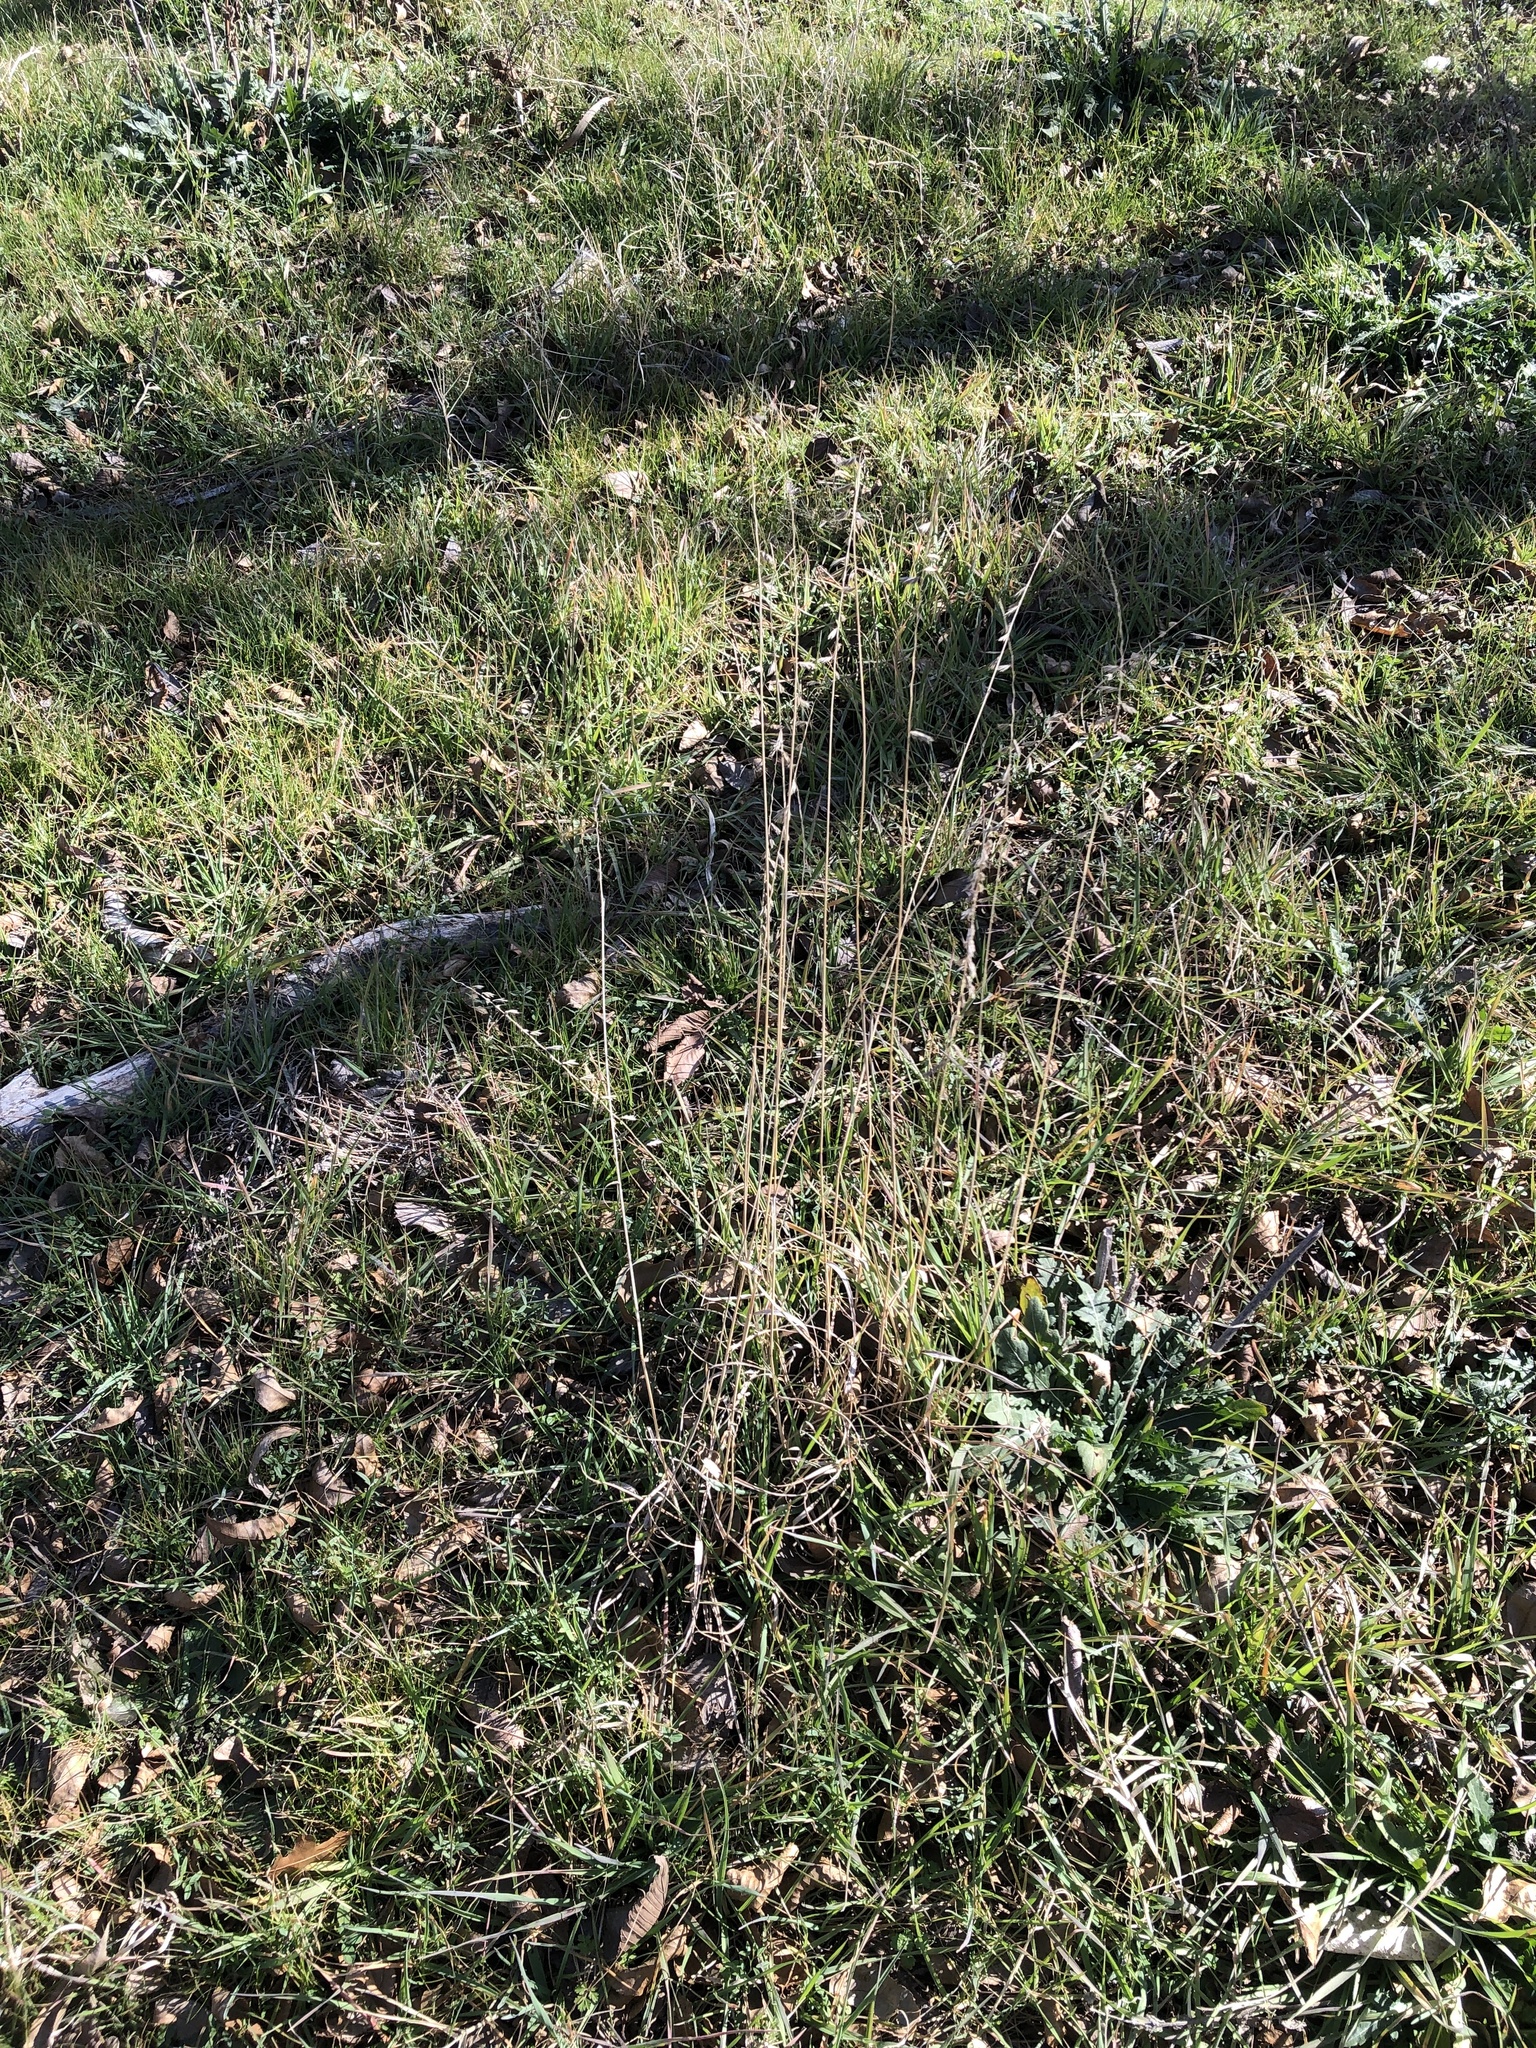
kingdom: Plantae
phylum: Tracheophyta
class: Liliopsida
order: Poales
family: Poaceae
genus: Bouteloua
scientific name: Bouteloua curtipendula
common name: Side-oats grama
